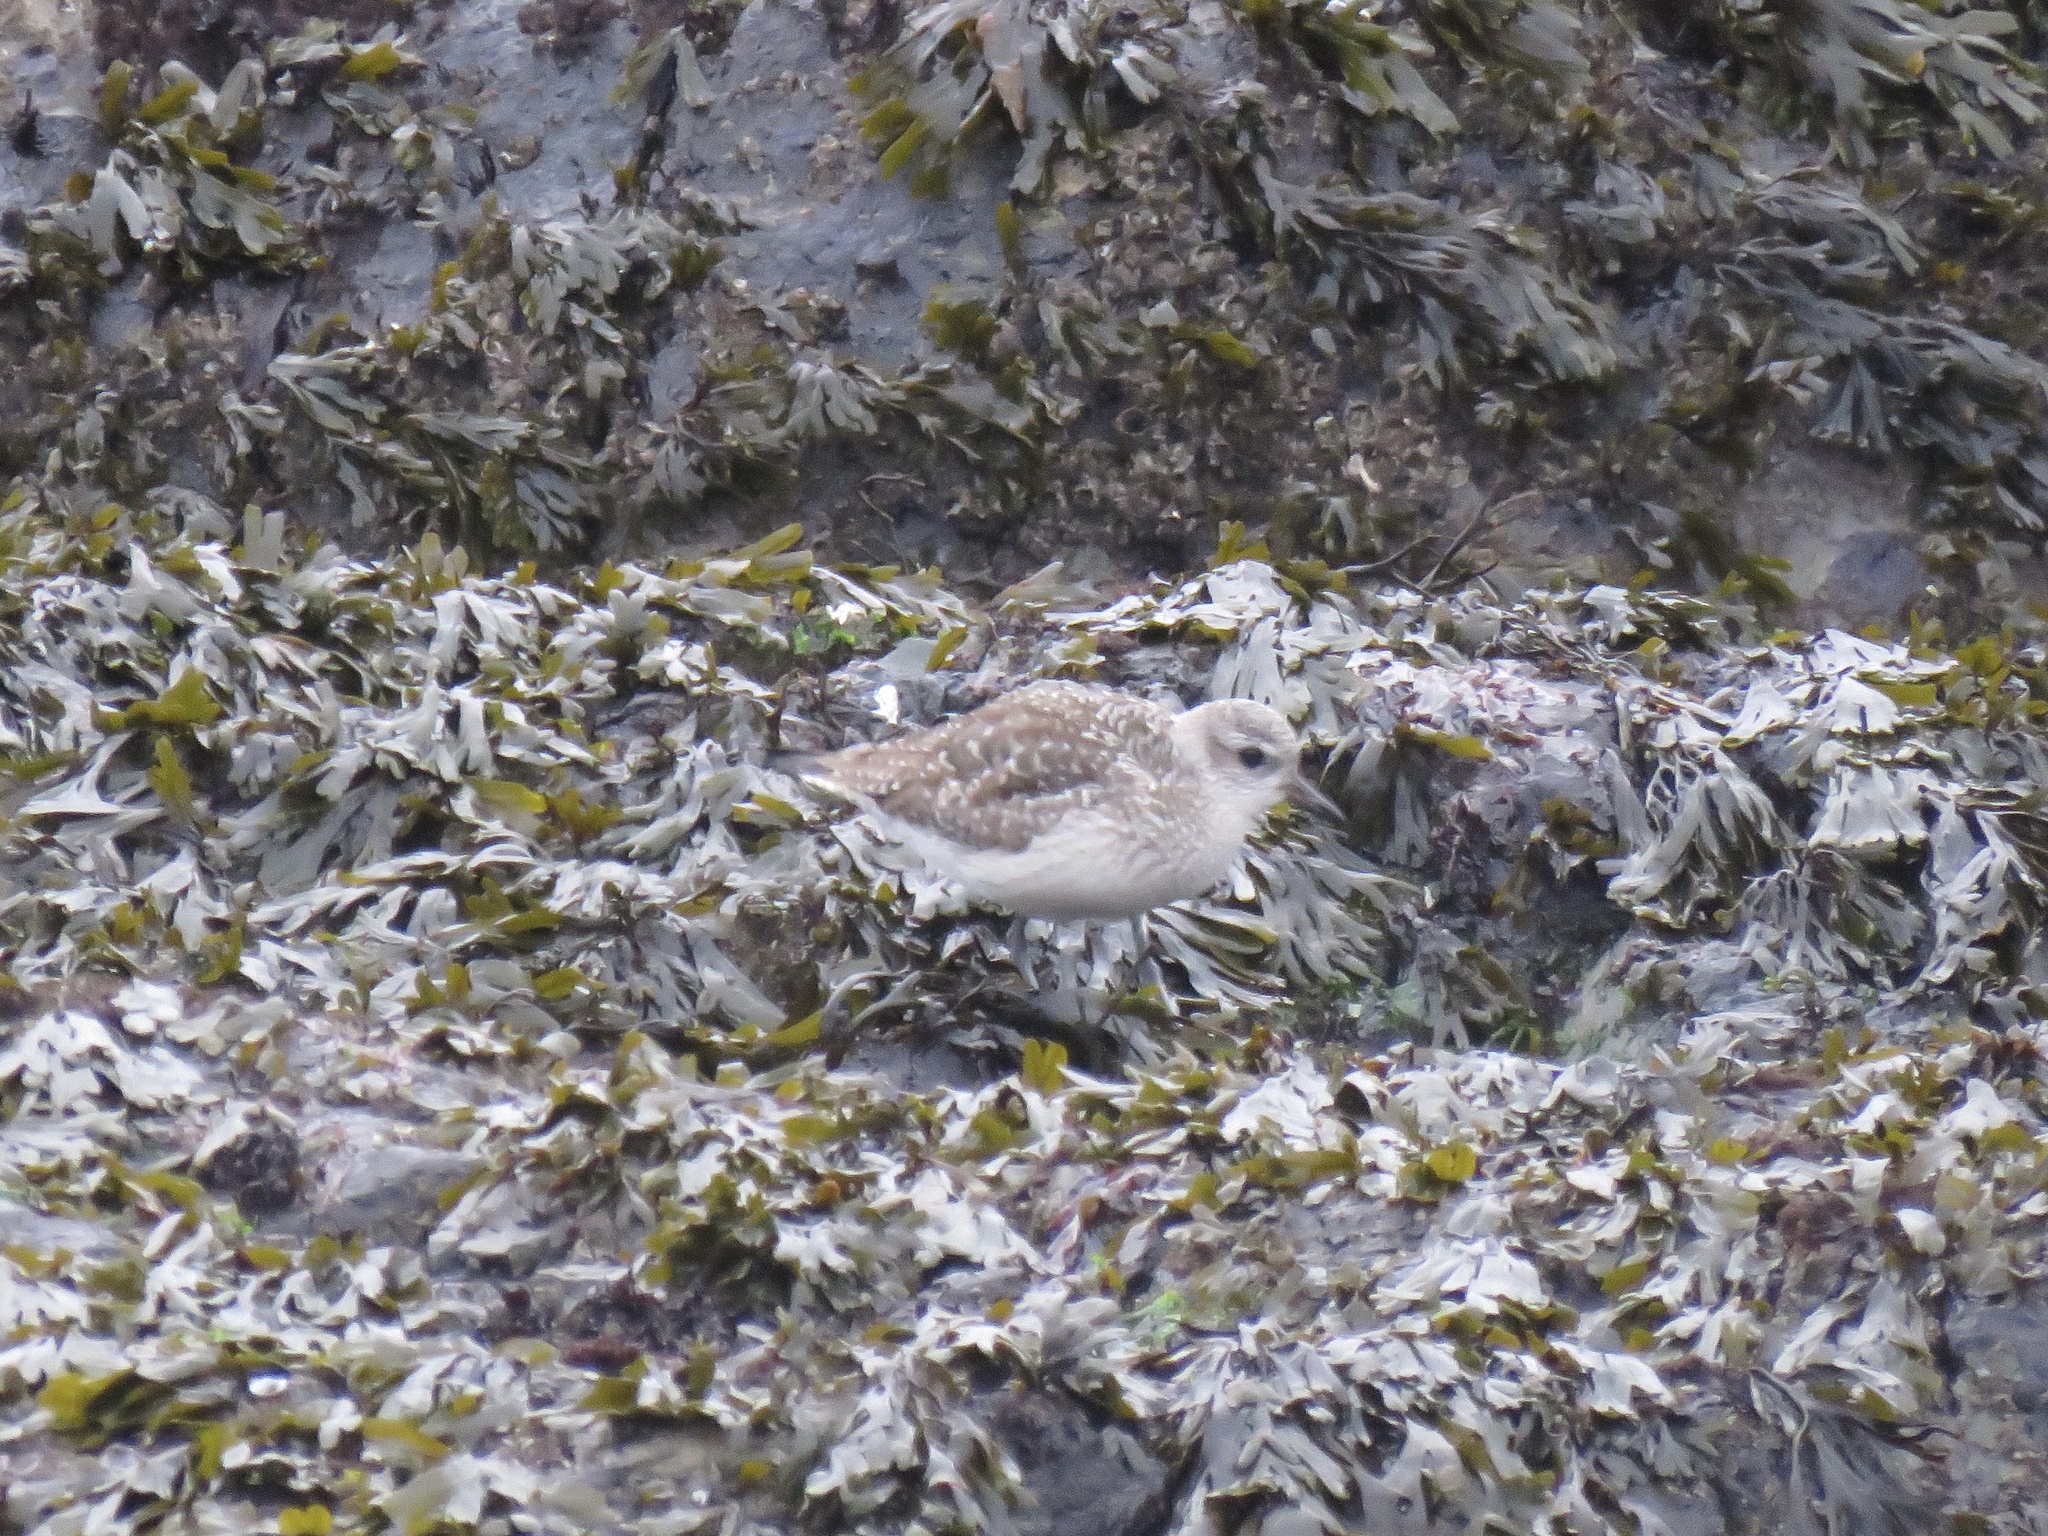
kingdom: Animalia
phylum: Chordata
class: Aves
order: Charadriiformes
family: Charadriidae
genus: Pluvialis
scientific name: Pluvialis squatarola
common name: Grey plover
